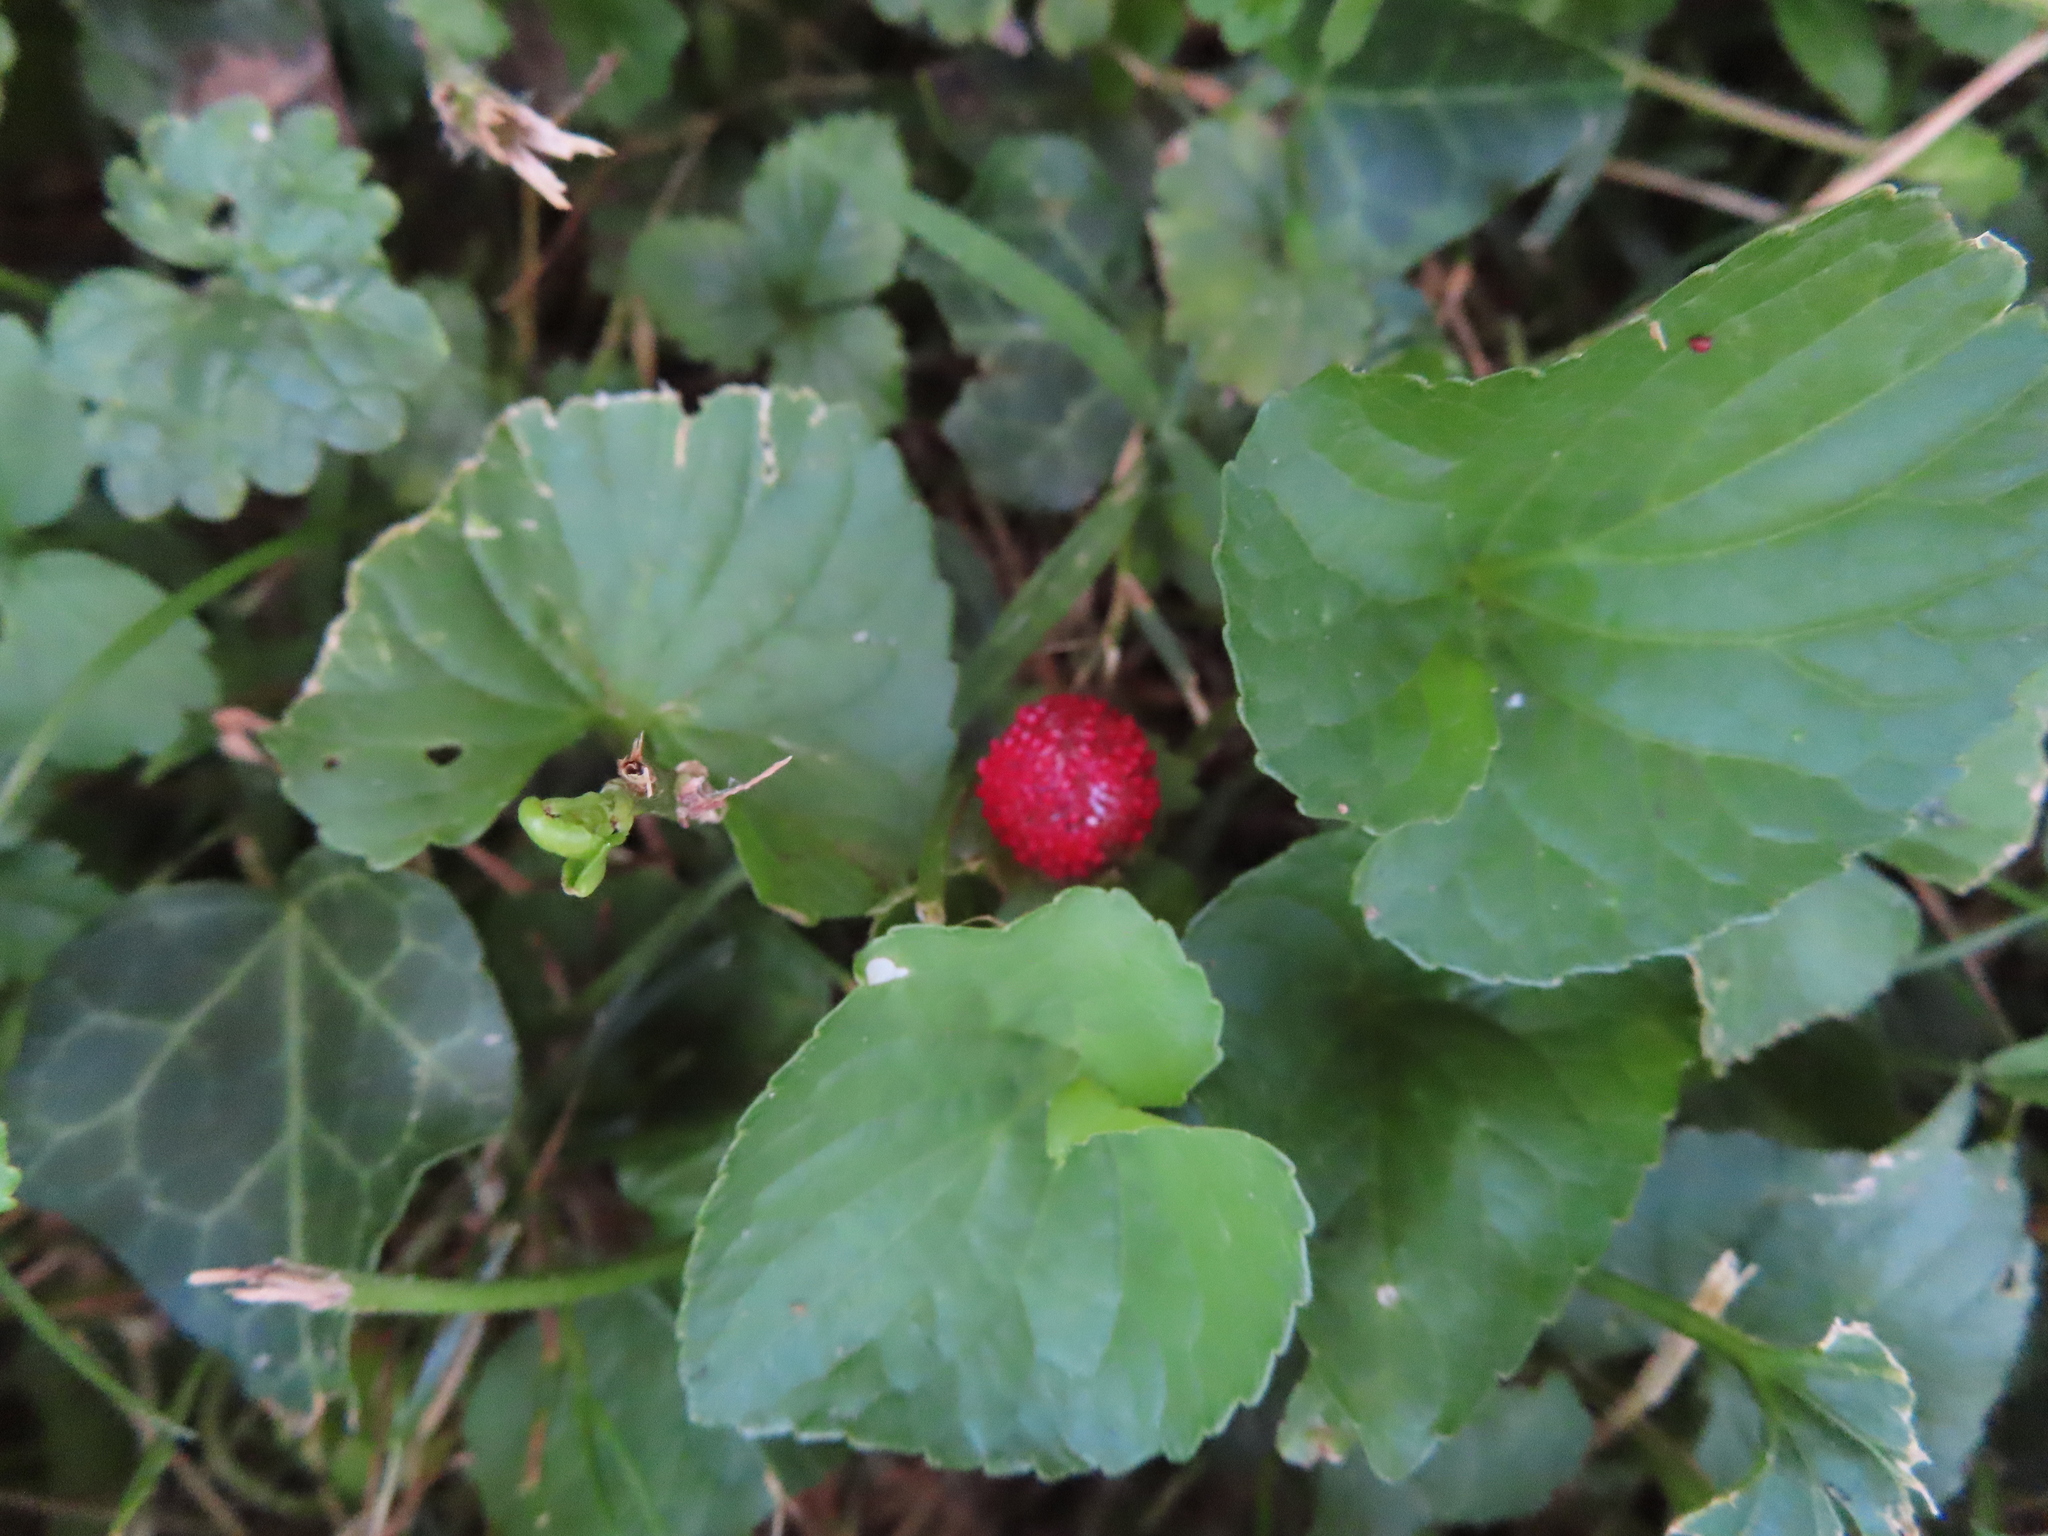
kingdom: Plantae
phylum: Tracheophyta
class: Magnoliopsida
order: Rosales
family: Rosaceae
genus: Potentilla
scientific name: Potentilla indica
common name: Yellow-flowered strawberry
